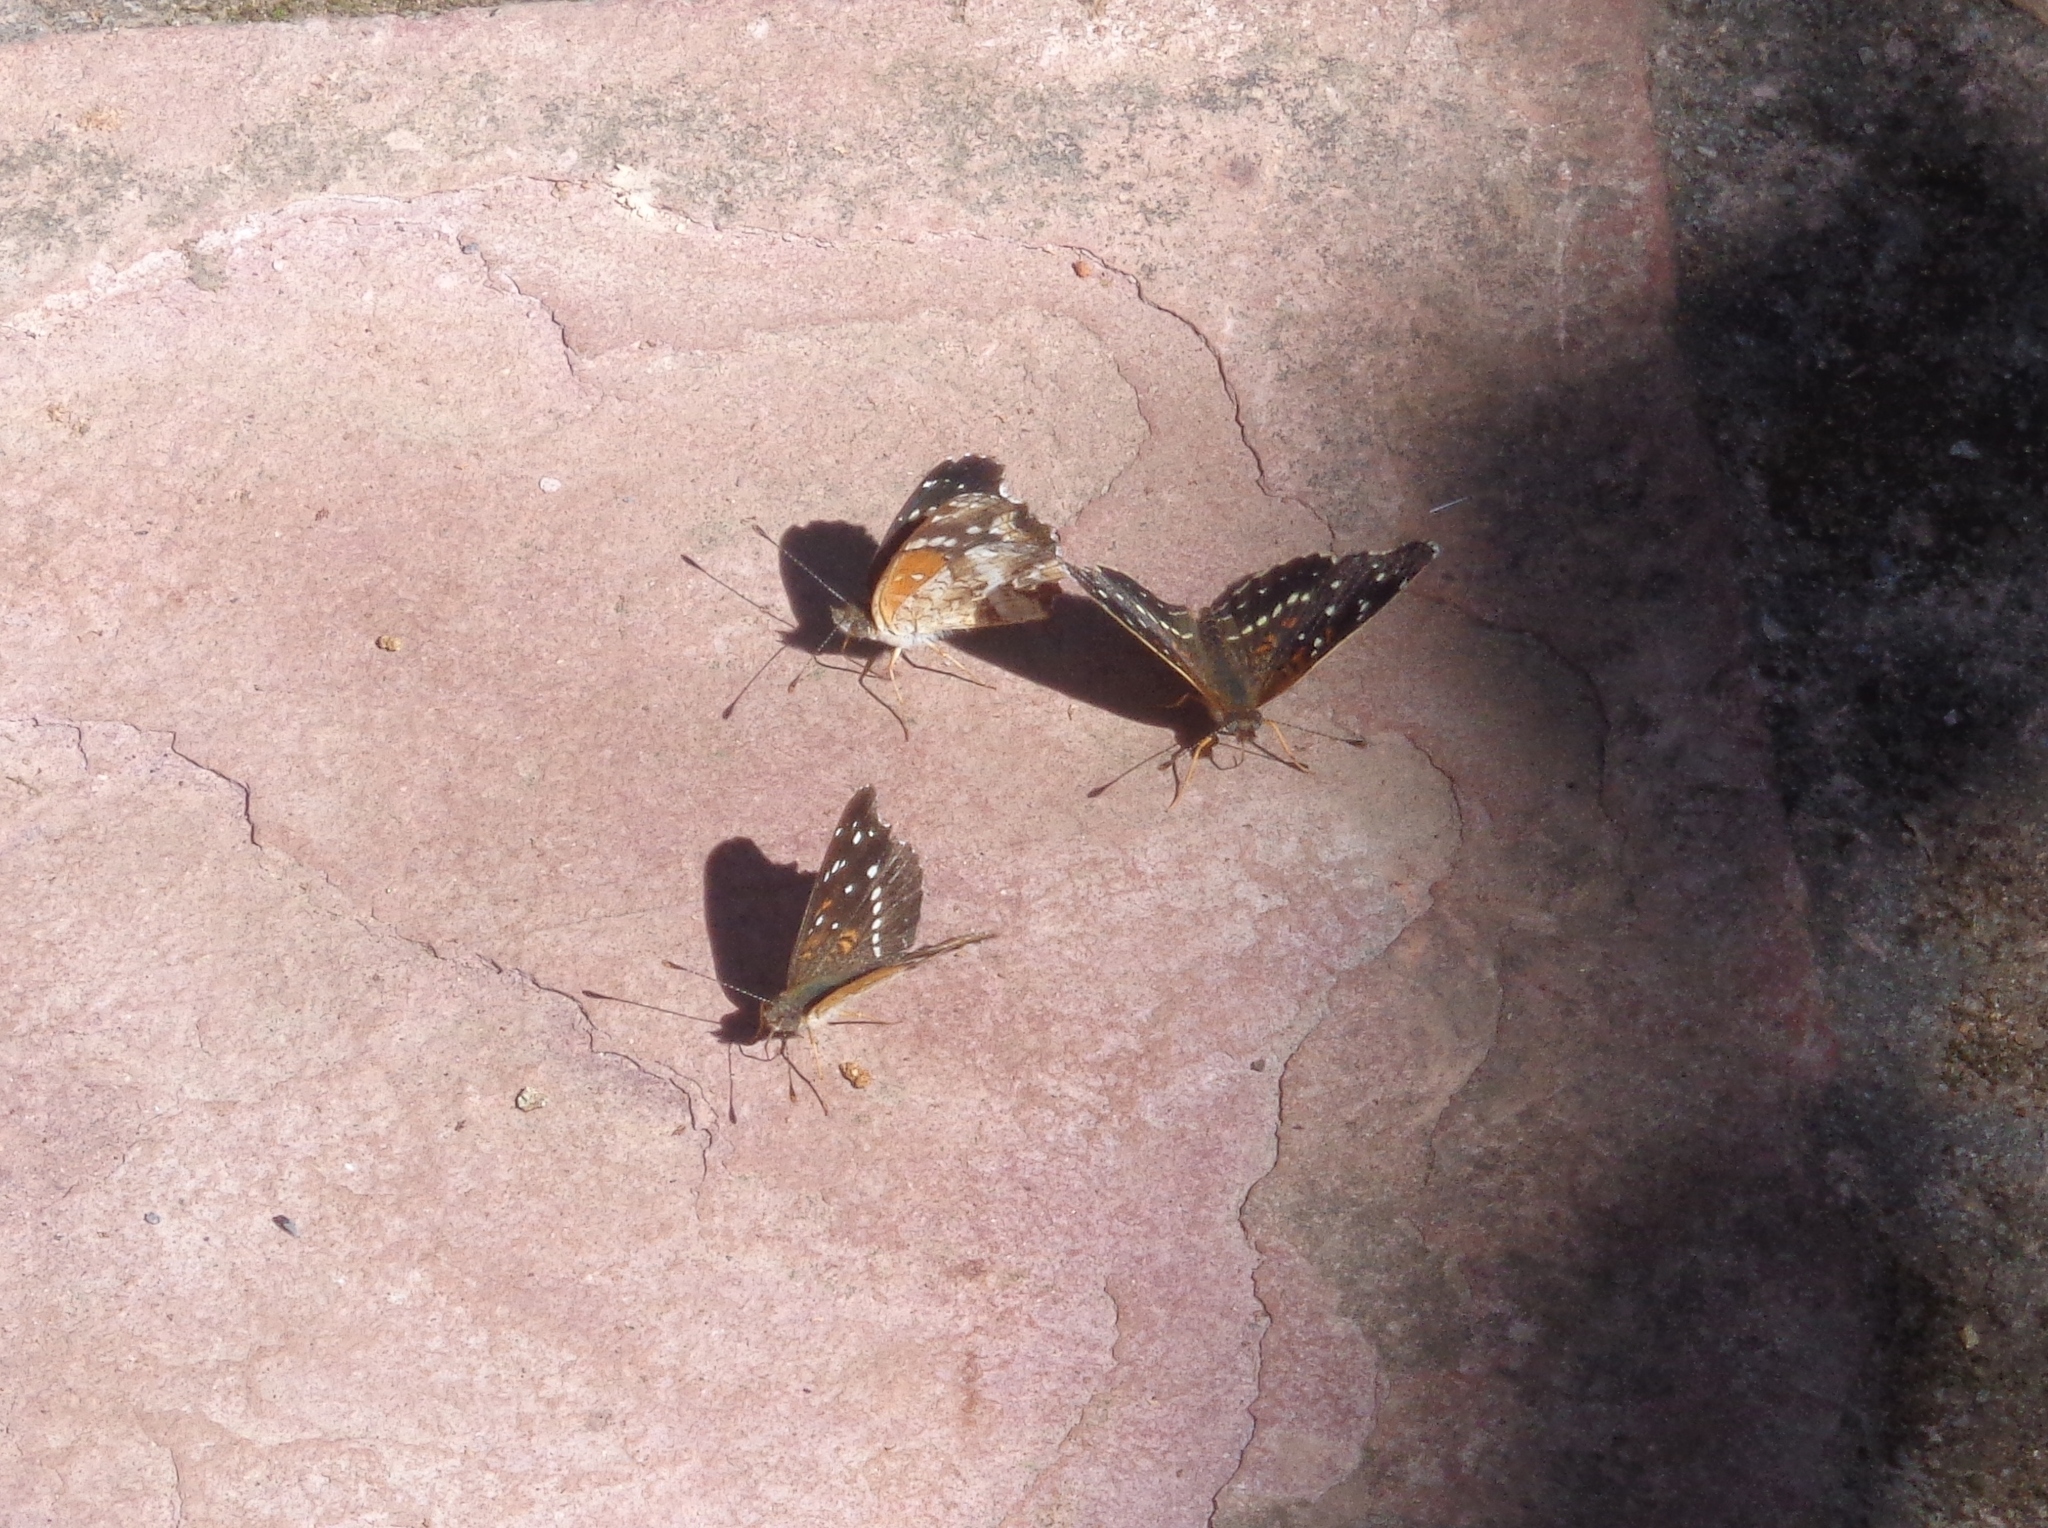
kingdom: Animalia
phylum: Arthropoda
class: Insecta
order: Lepidoptera
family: Nymphalidae
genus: Anthanassa
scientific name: Anthanassa texana
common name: Texan crescent
